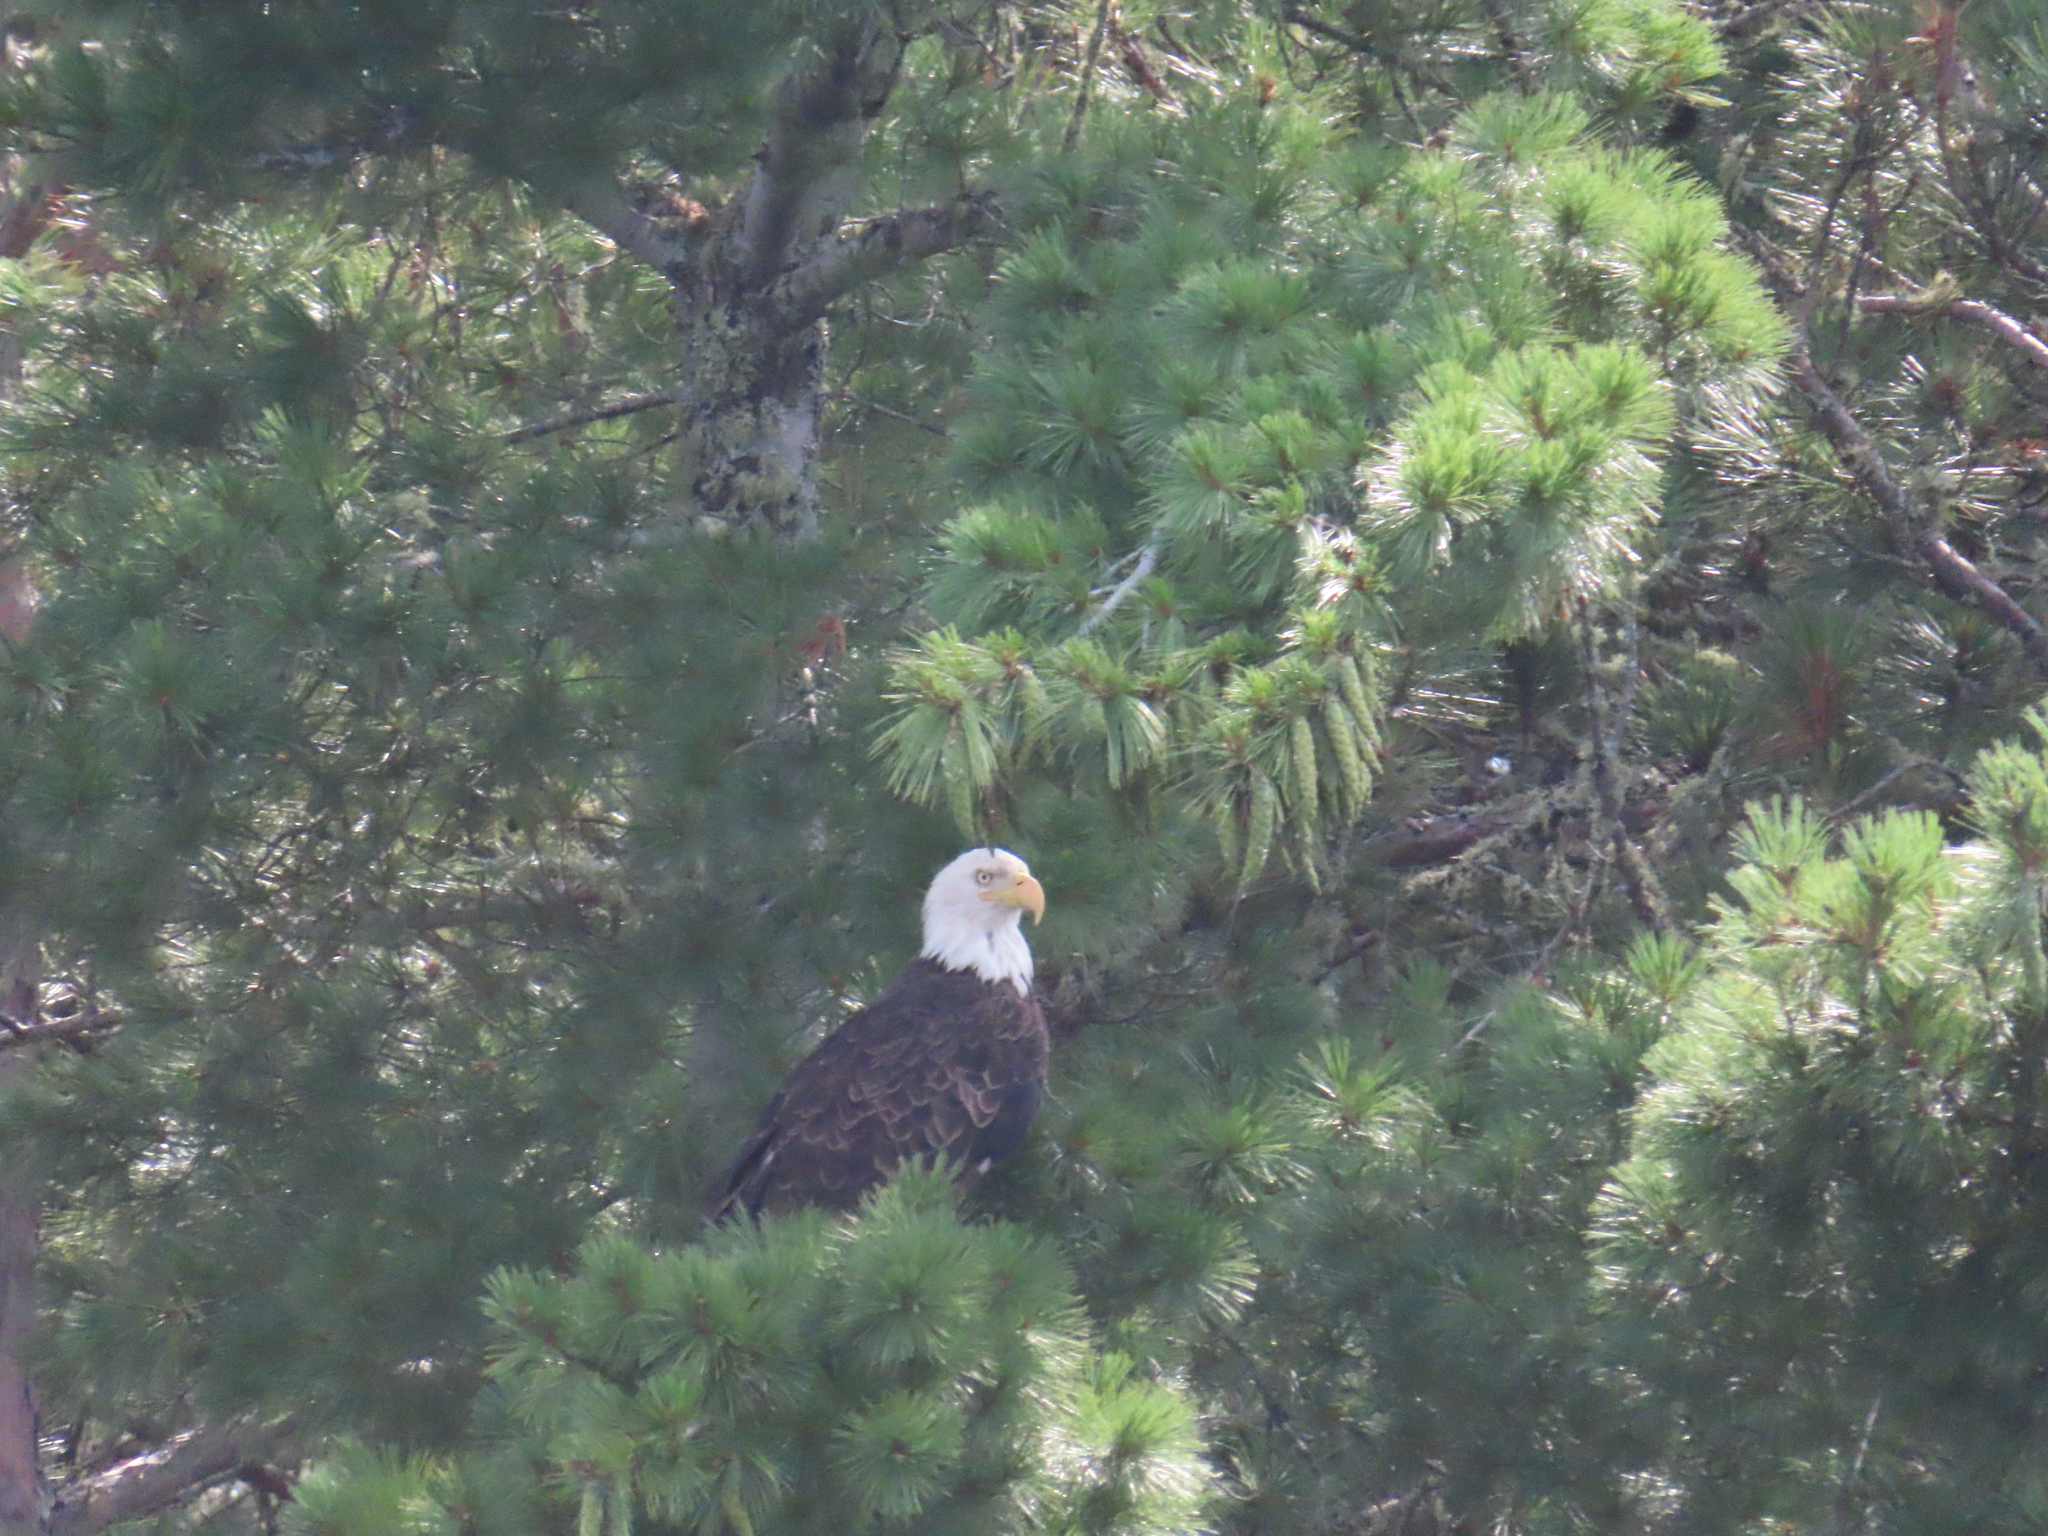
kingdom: Animalia
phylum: Chordata
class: Aves
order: Accipitriformes
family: Accipitridae
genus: Haliaeetus
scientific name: Haliaeetus leucocephalus
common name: Bald eagle
